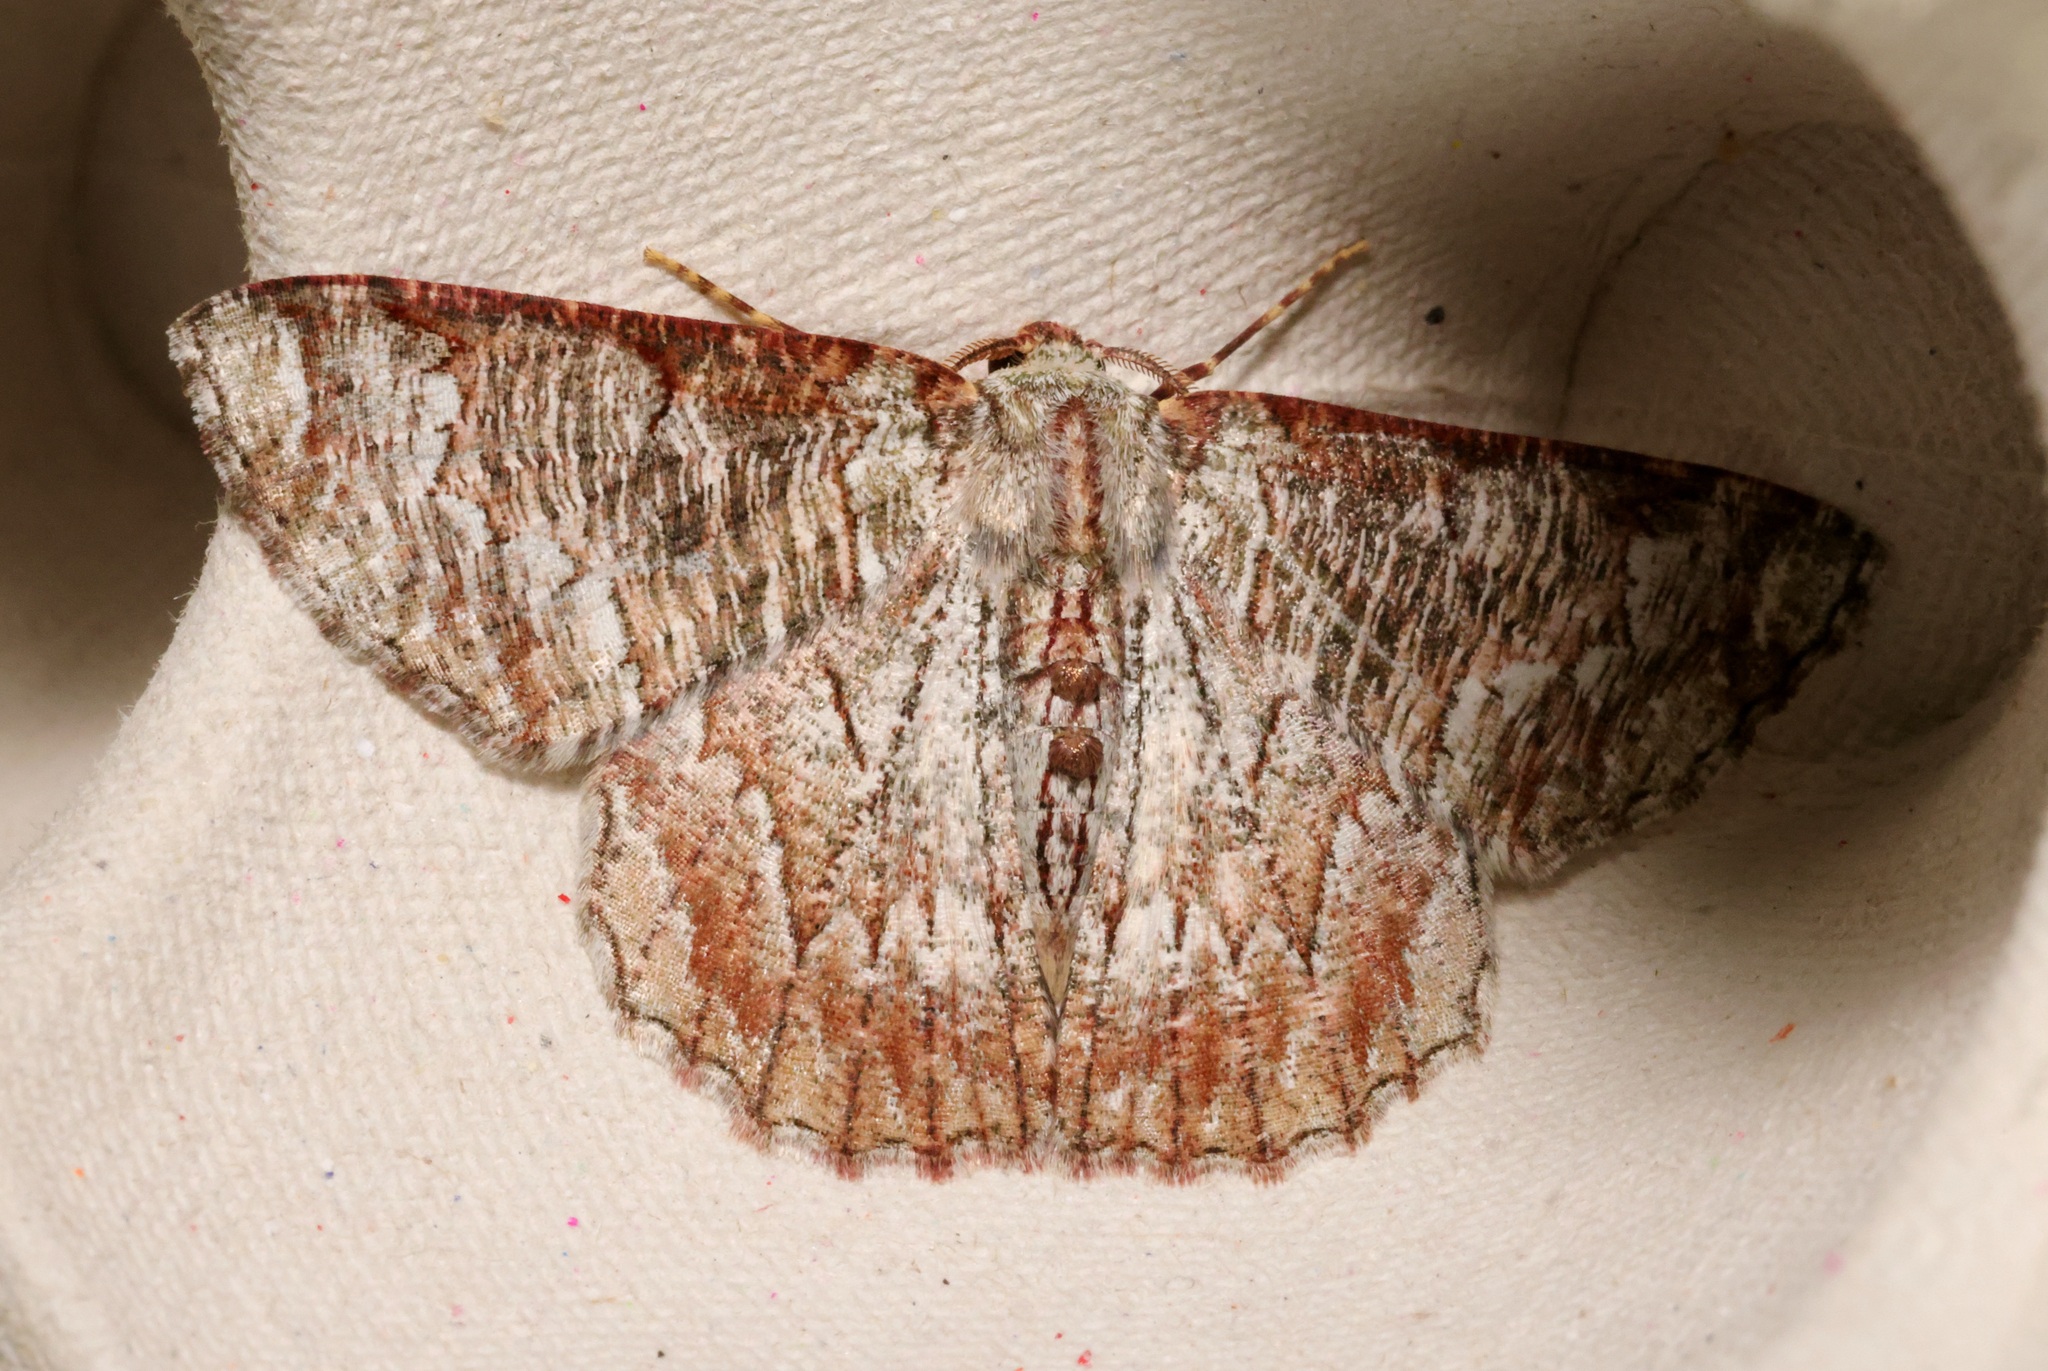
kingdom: Animalia
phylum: Arthropoda
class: Insecta
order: Lepidoptera
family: Geometridae
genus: Lophophelma
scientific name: Lophophelma luteipes
